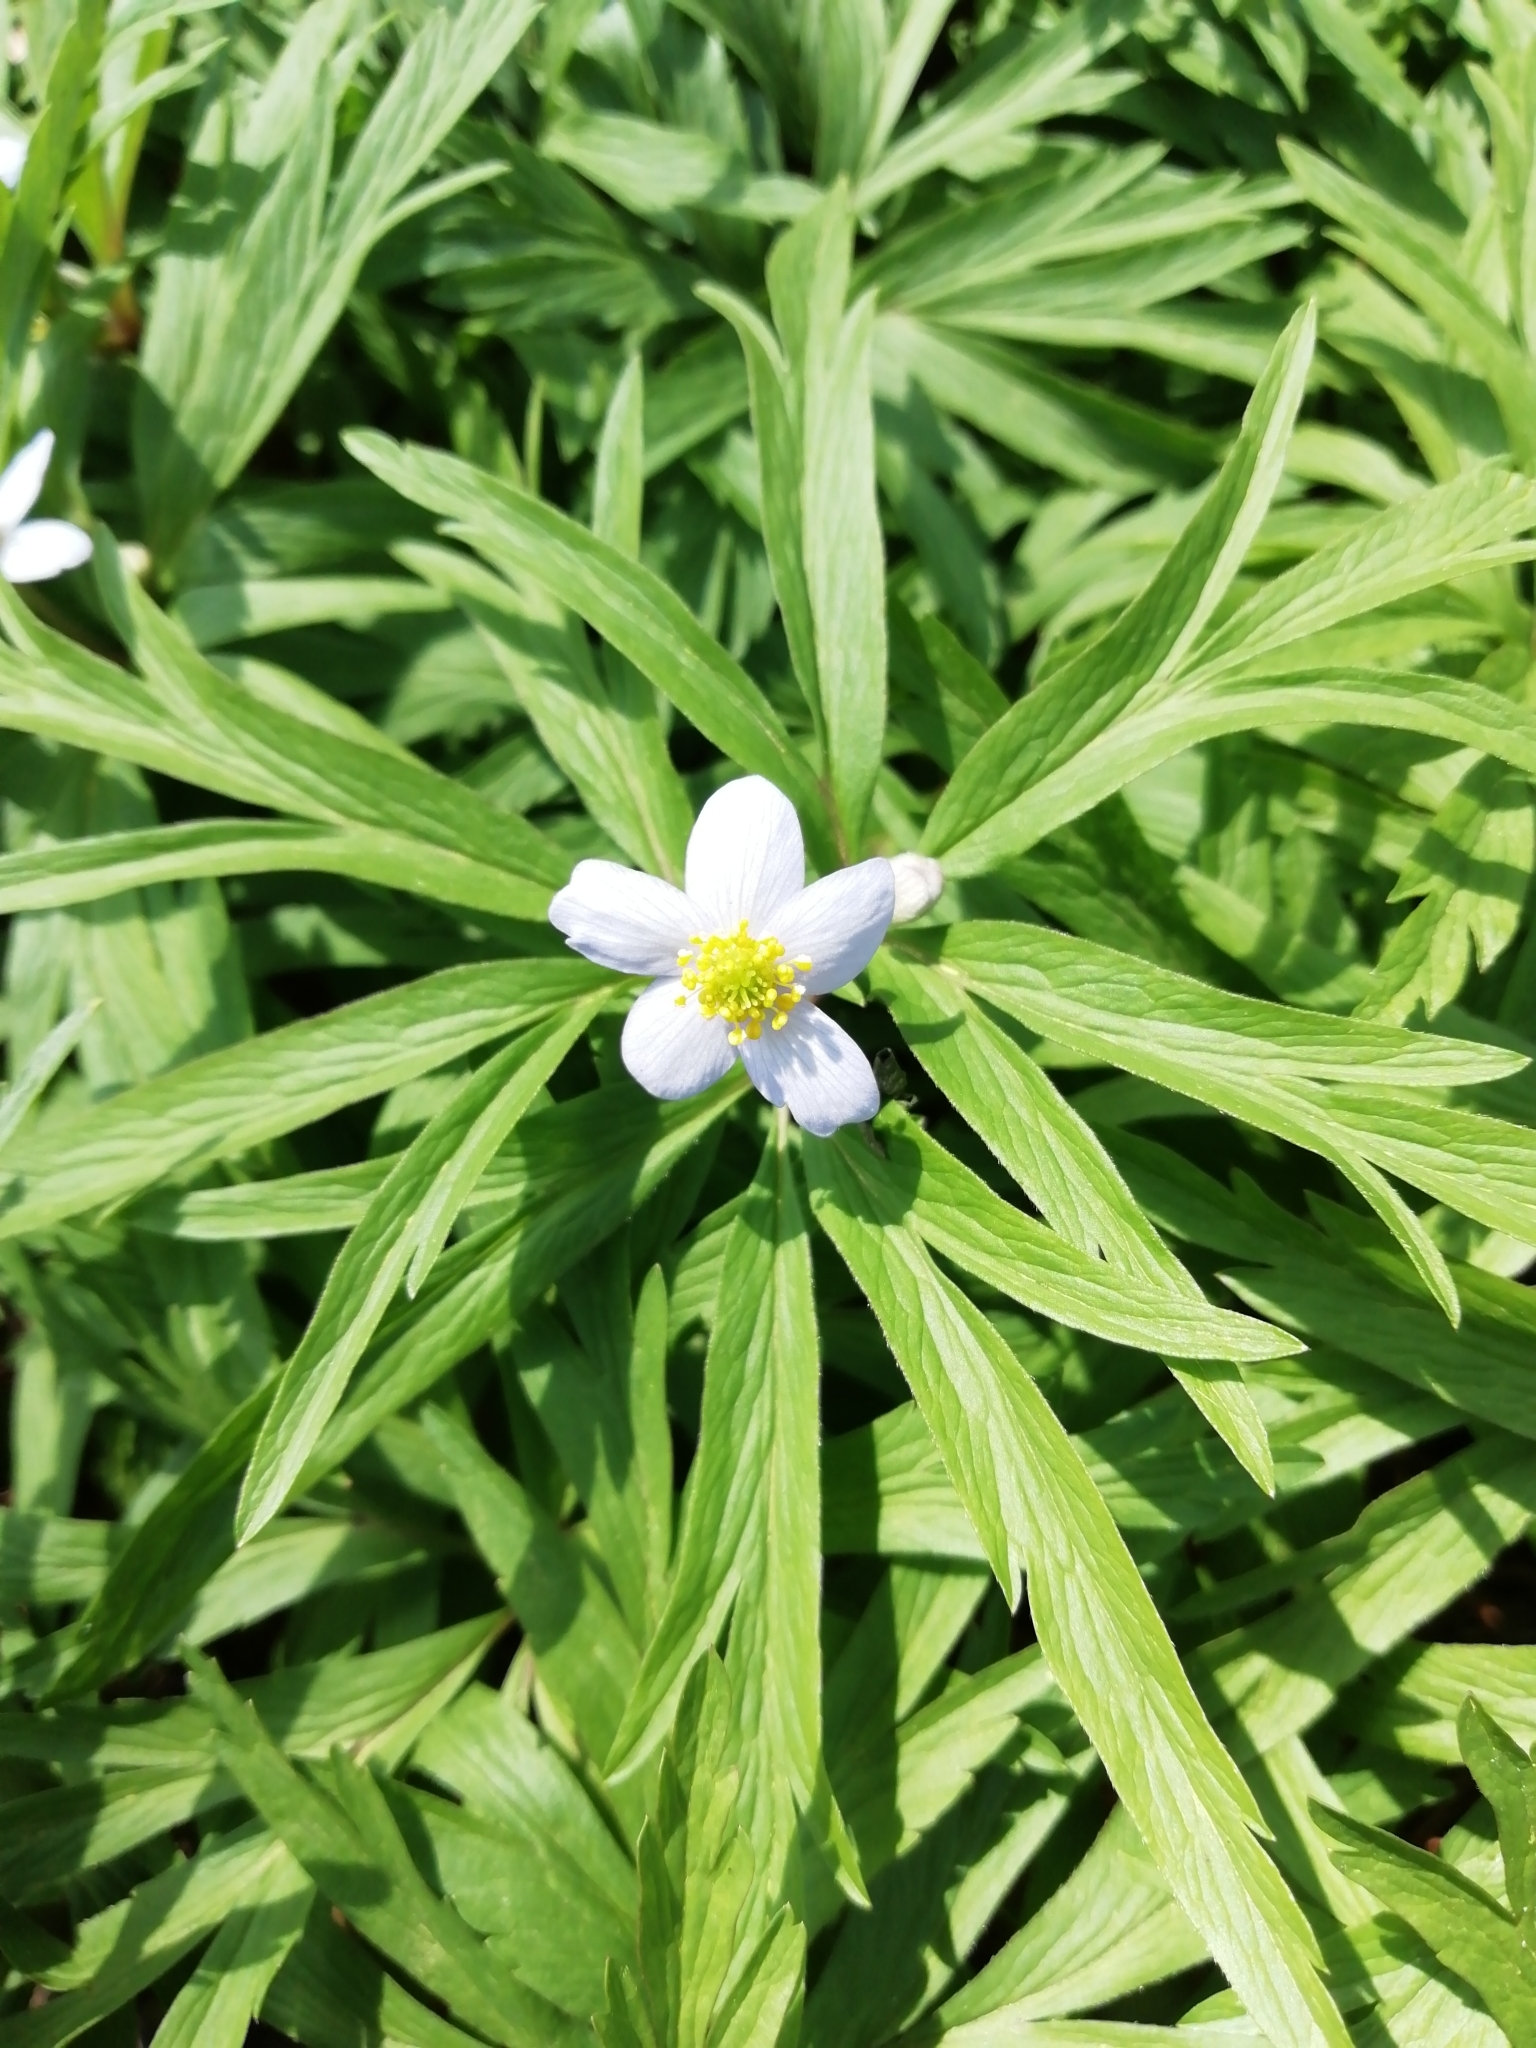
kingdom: Plantae
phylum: Tracheophyta
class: Magnoliopsida
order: Ranunculales
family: Ranunculaceae
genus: Anemone
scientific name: Anemone caerulea
